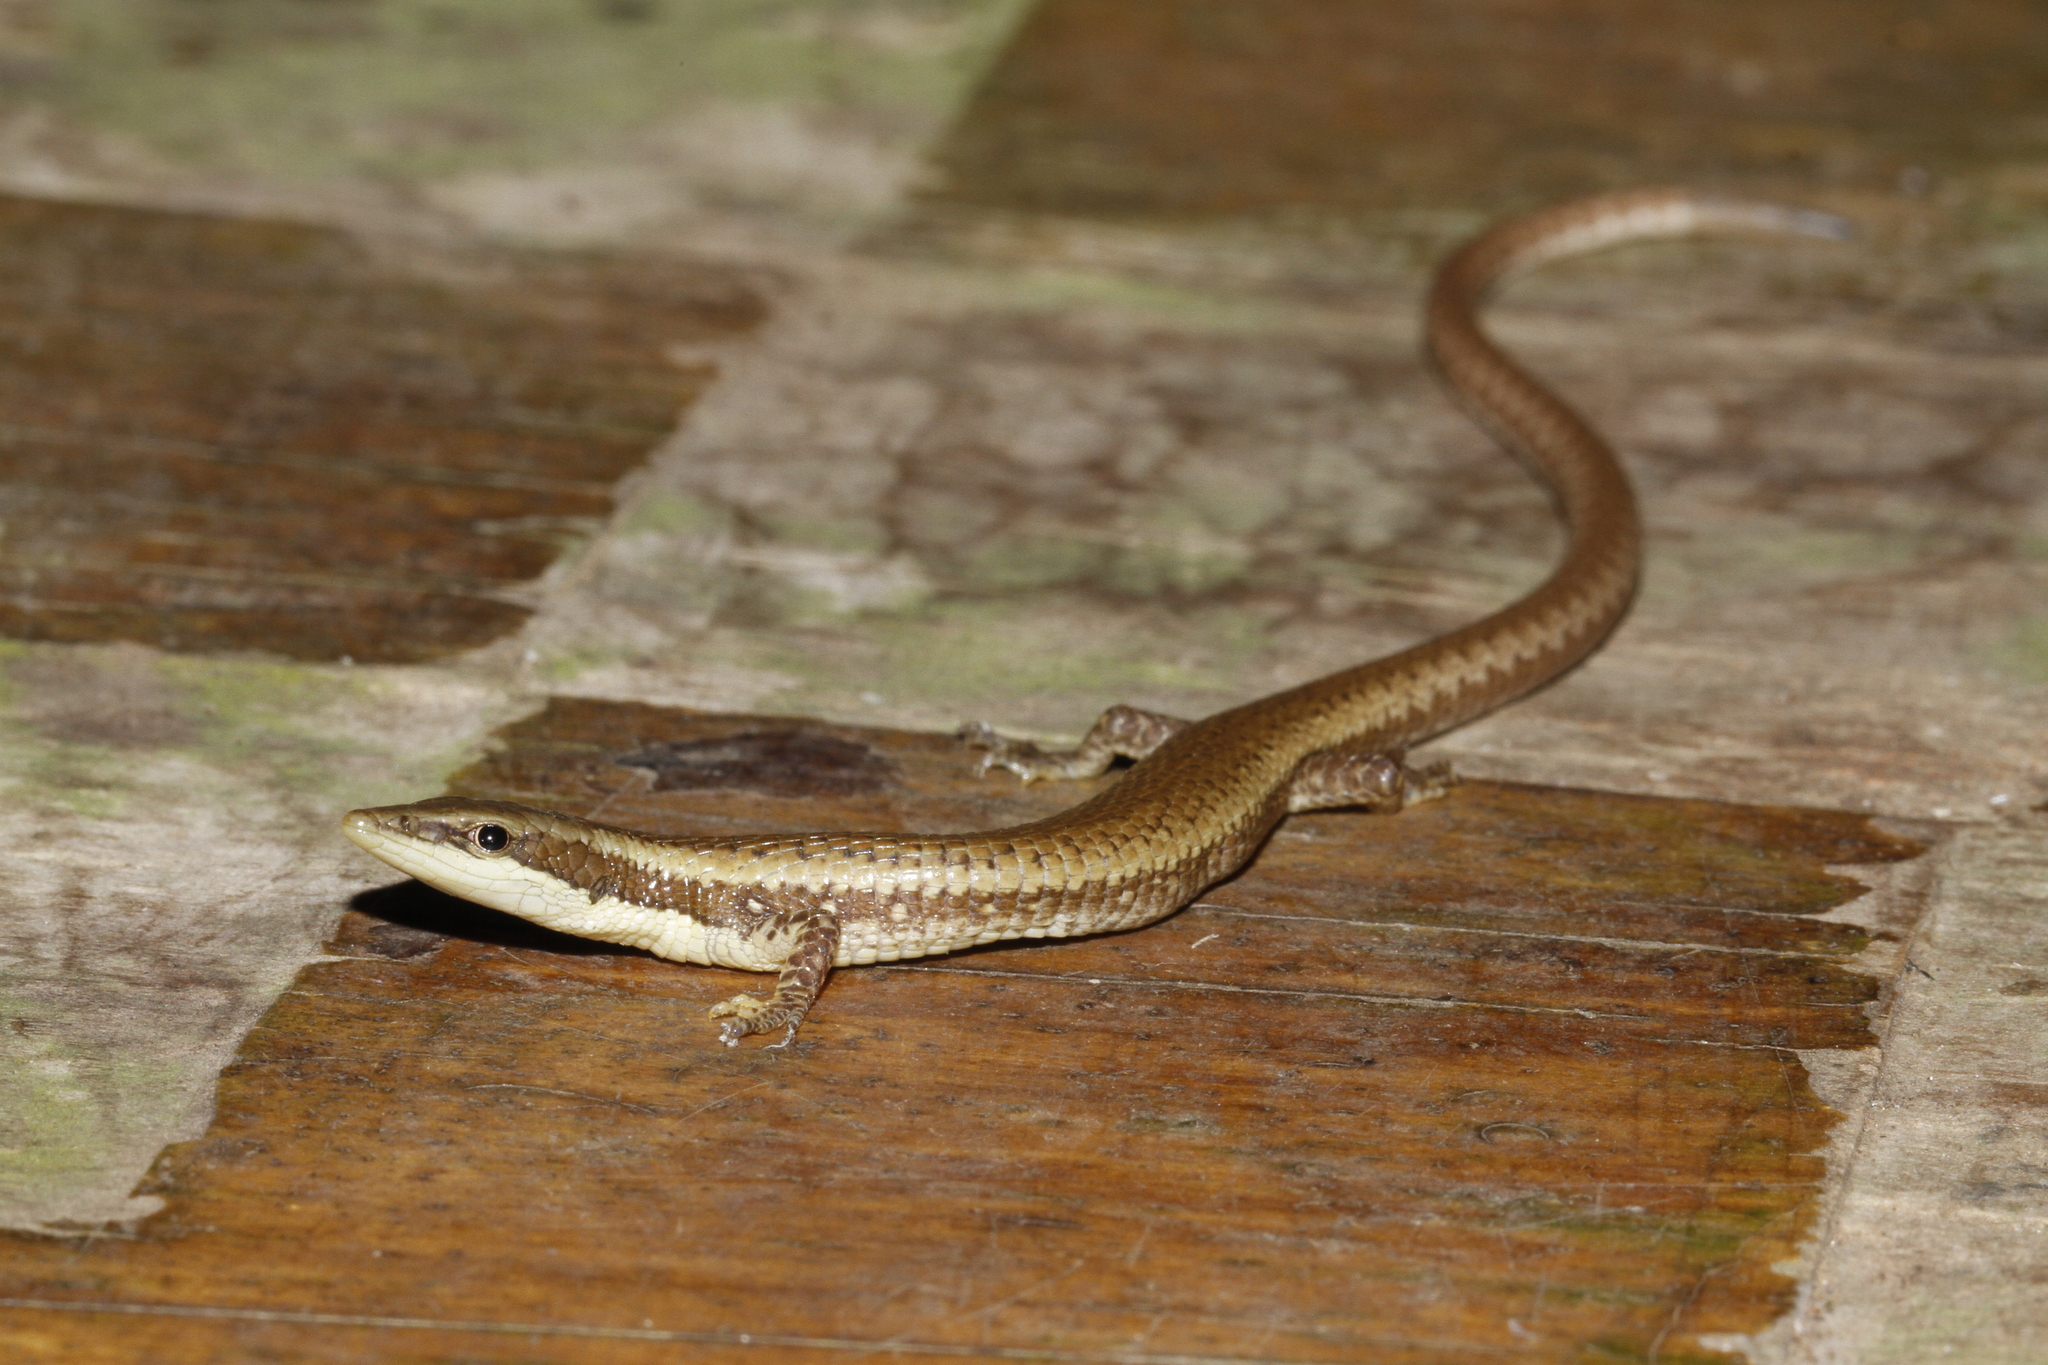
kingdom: Animalia
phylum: Chordata
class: Squamata
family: Gymnophthalmidae
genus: Anadia
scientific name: Anadia ocellata
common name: Ocellated anadia
